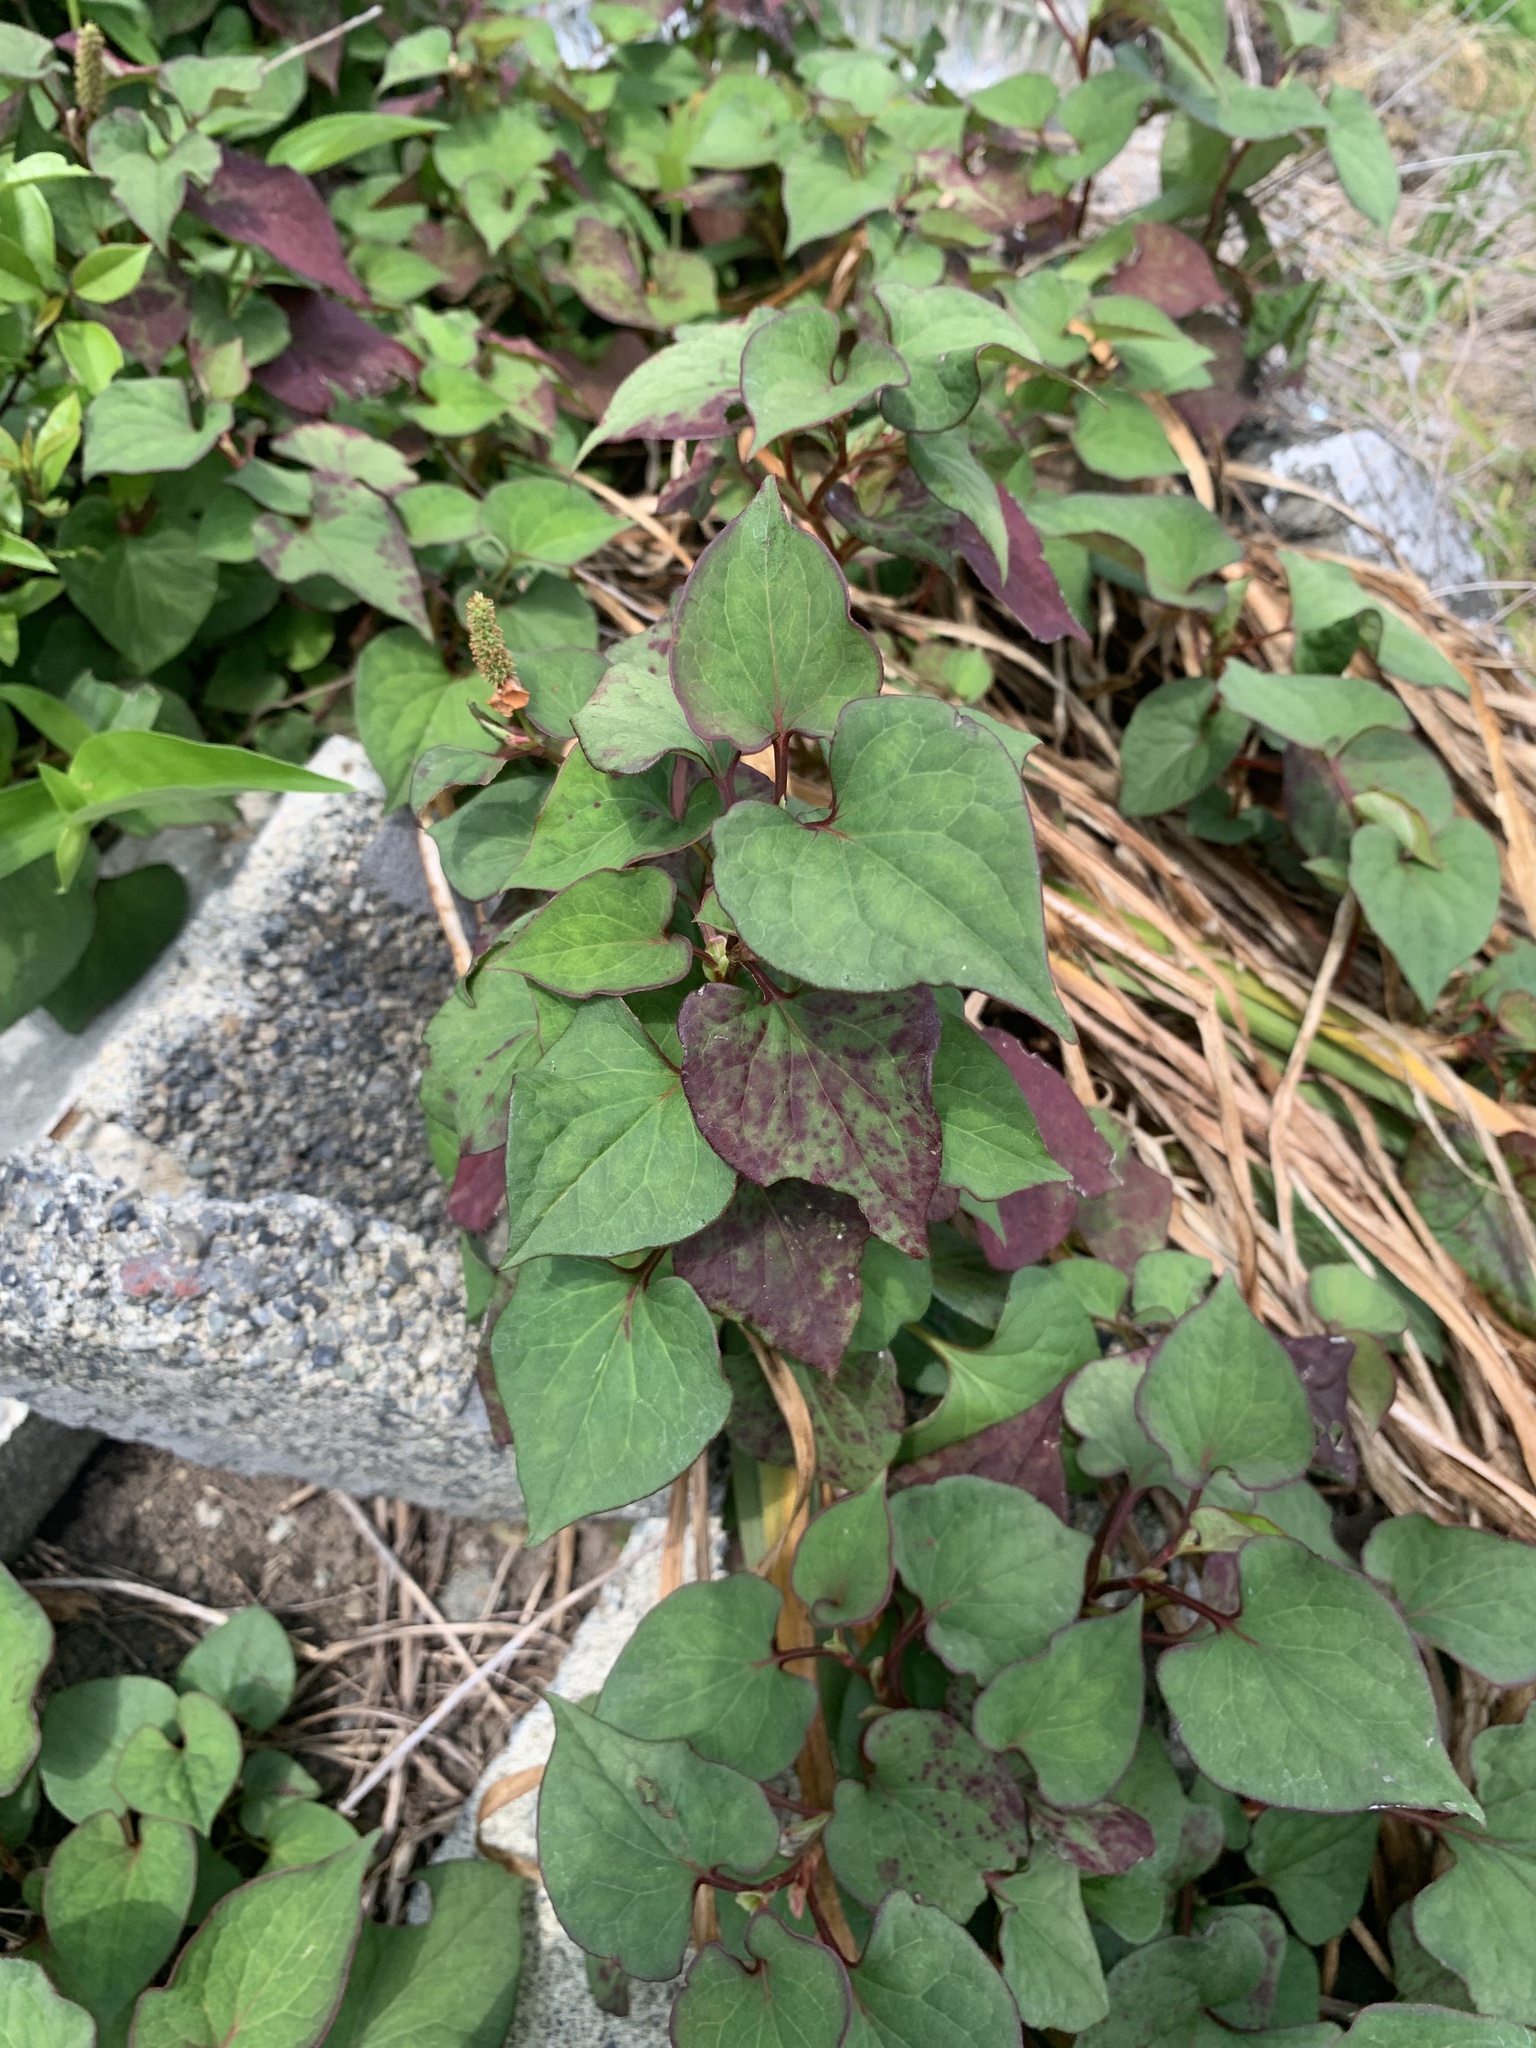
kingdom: Plantae
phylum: Tracheophyta
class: Magnoliopsida
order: Piperales
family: Saururaceae
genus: Houttuynia
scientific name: Houttuynia cordata
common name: Chameleon
